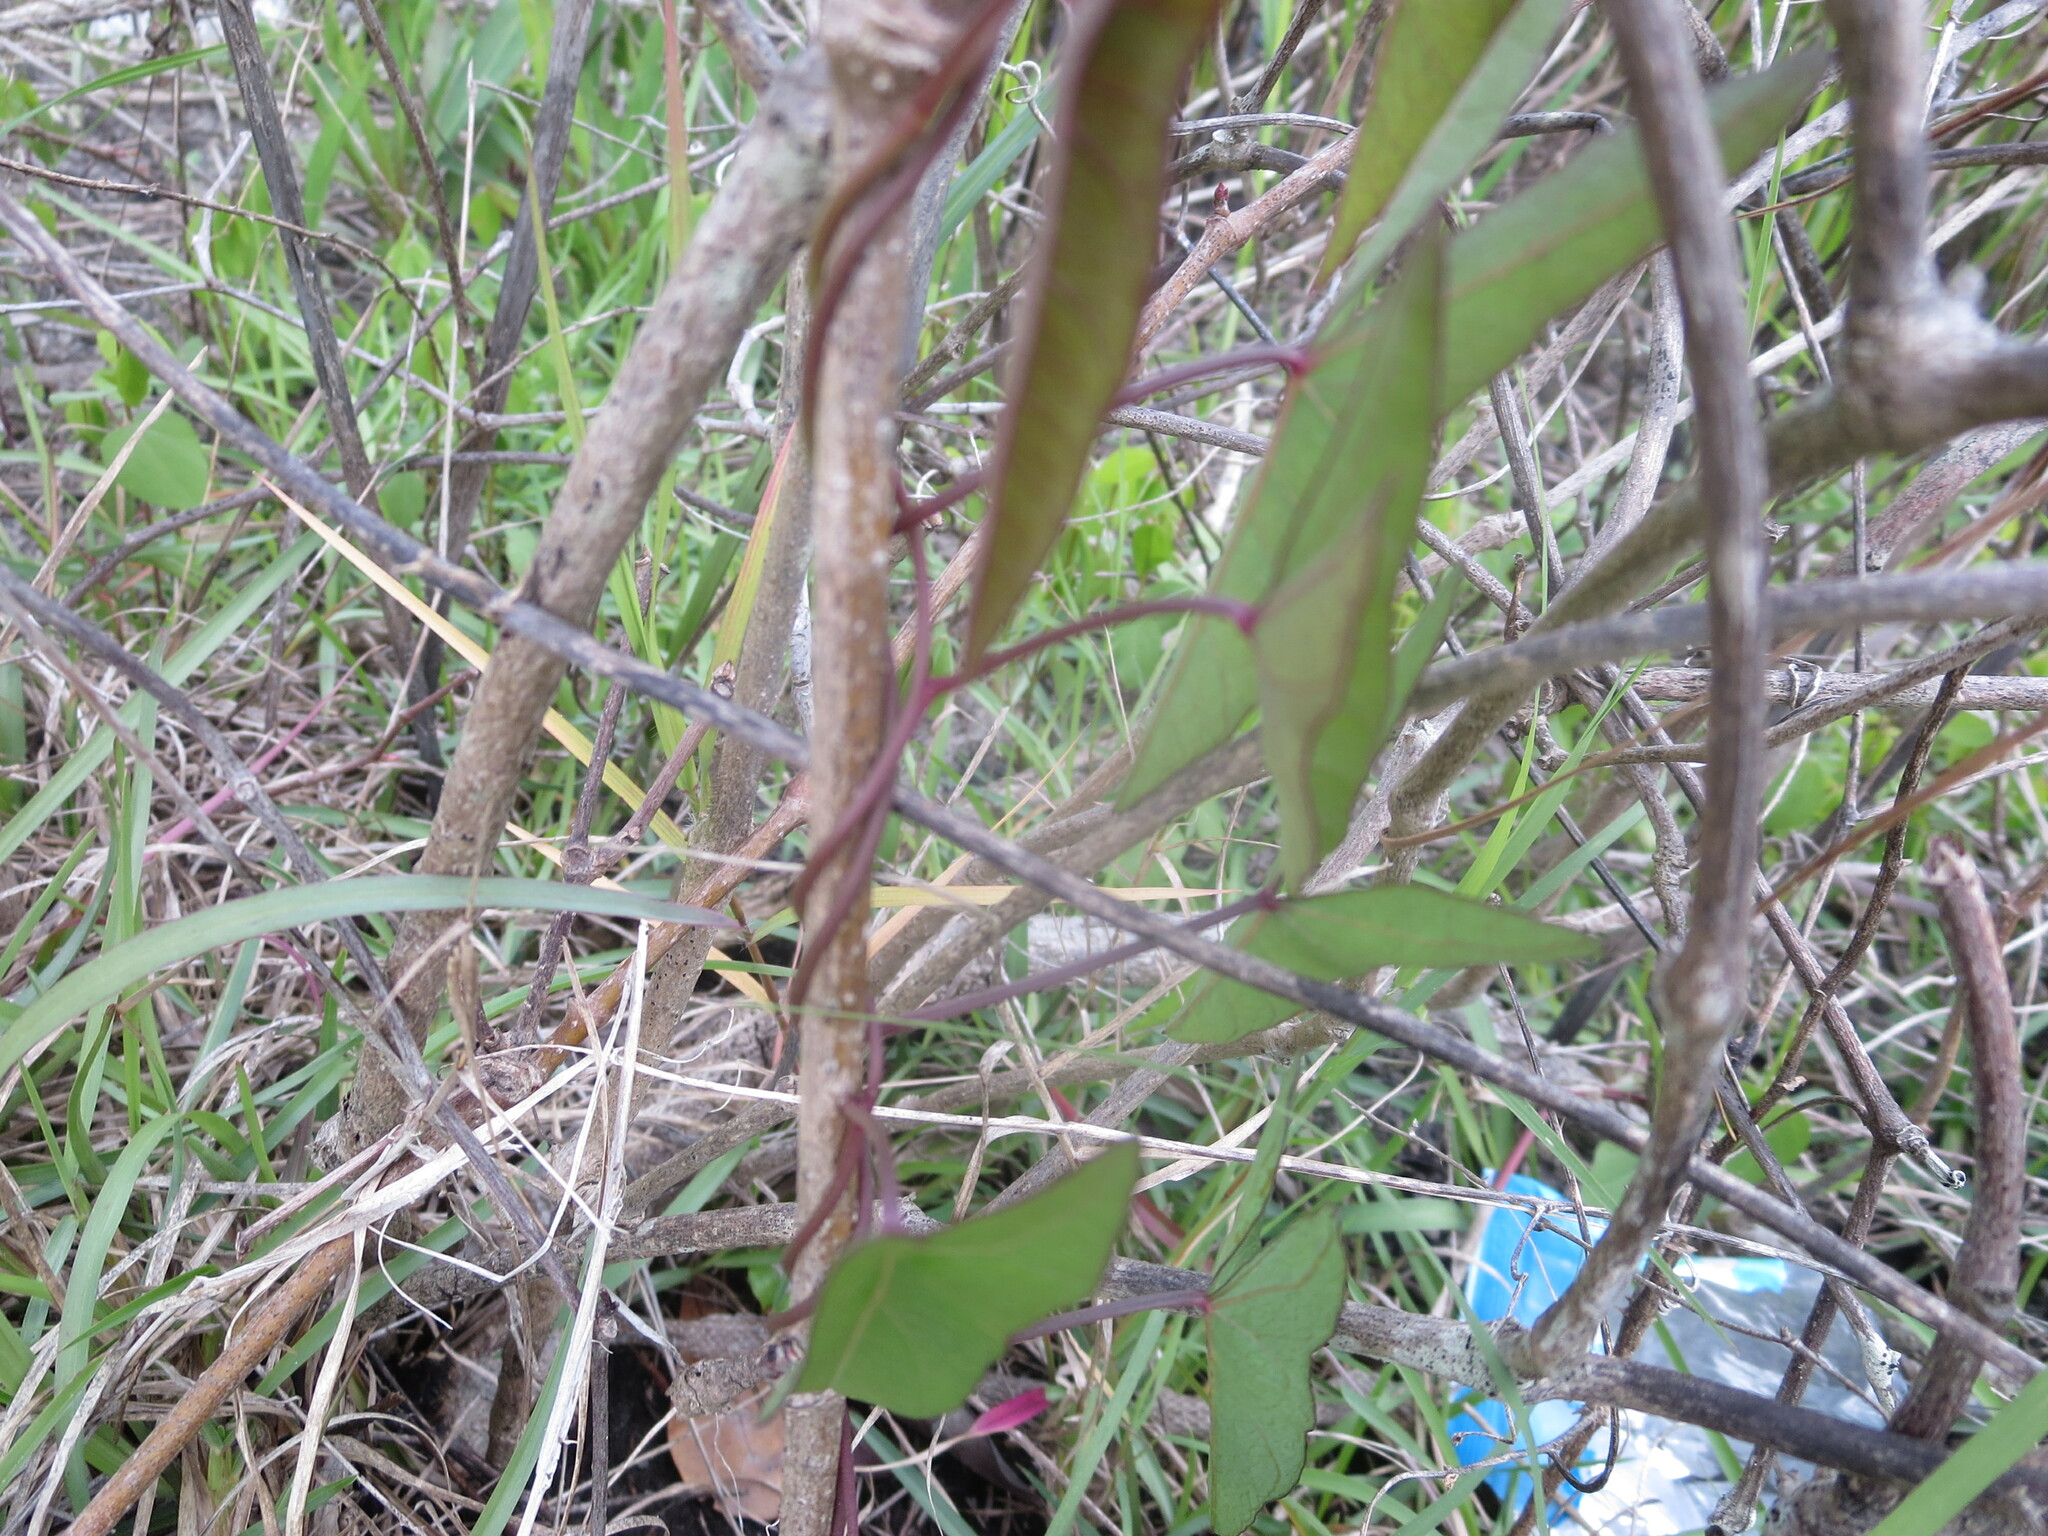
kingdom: Plantae
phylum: Tracheophyta
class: Magnoliopsida
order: Solanales
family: Convolvulaceae
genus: Ipomoea
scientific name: Ipomoea sagittata
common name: Saltmarsh morning glory
